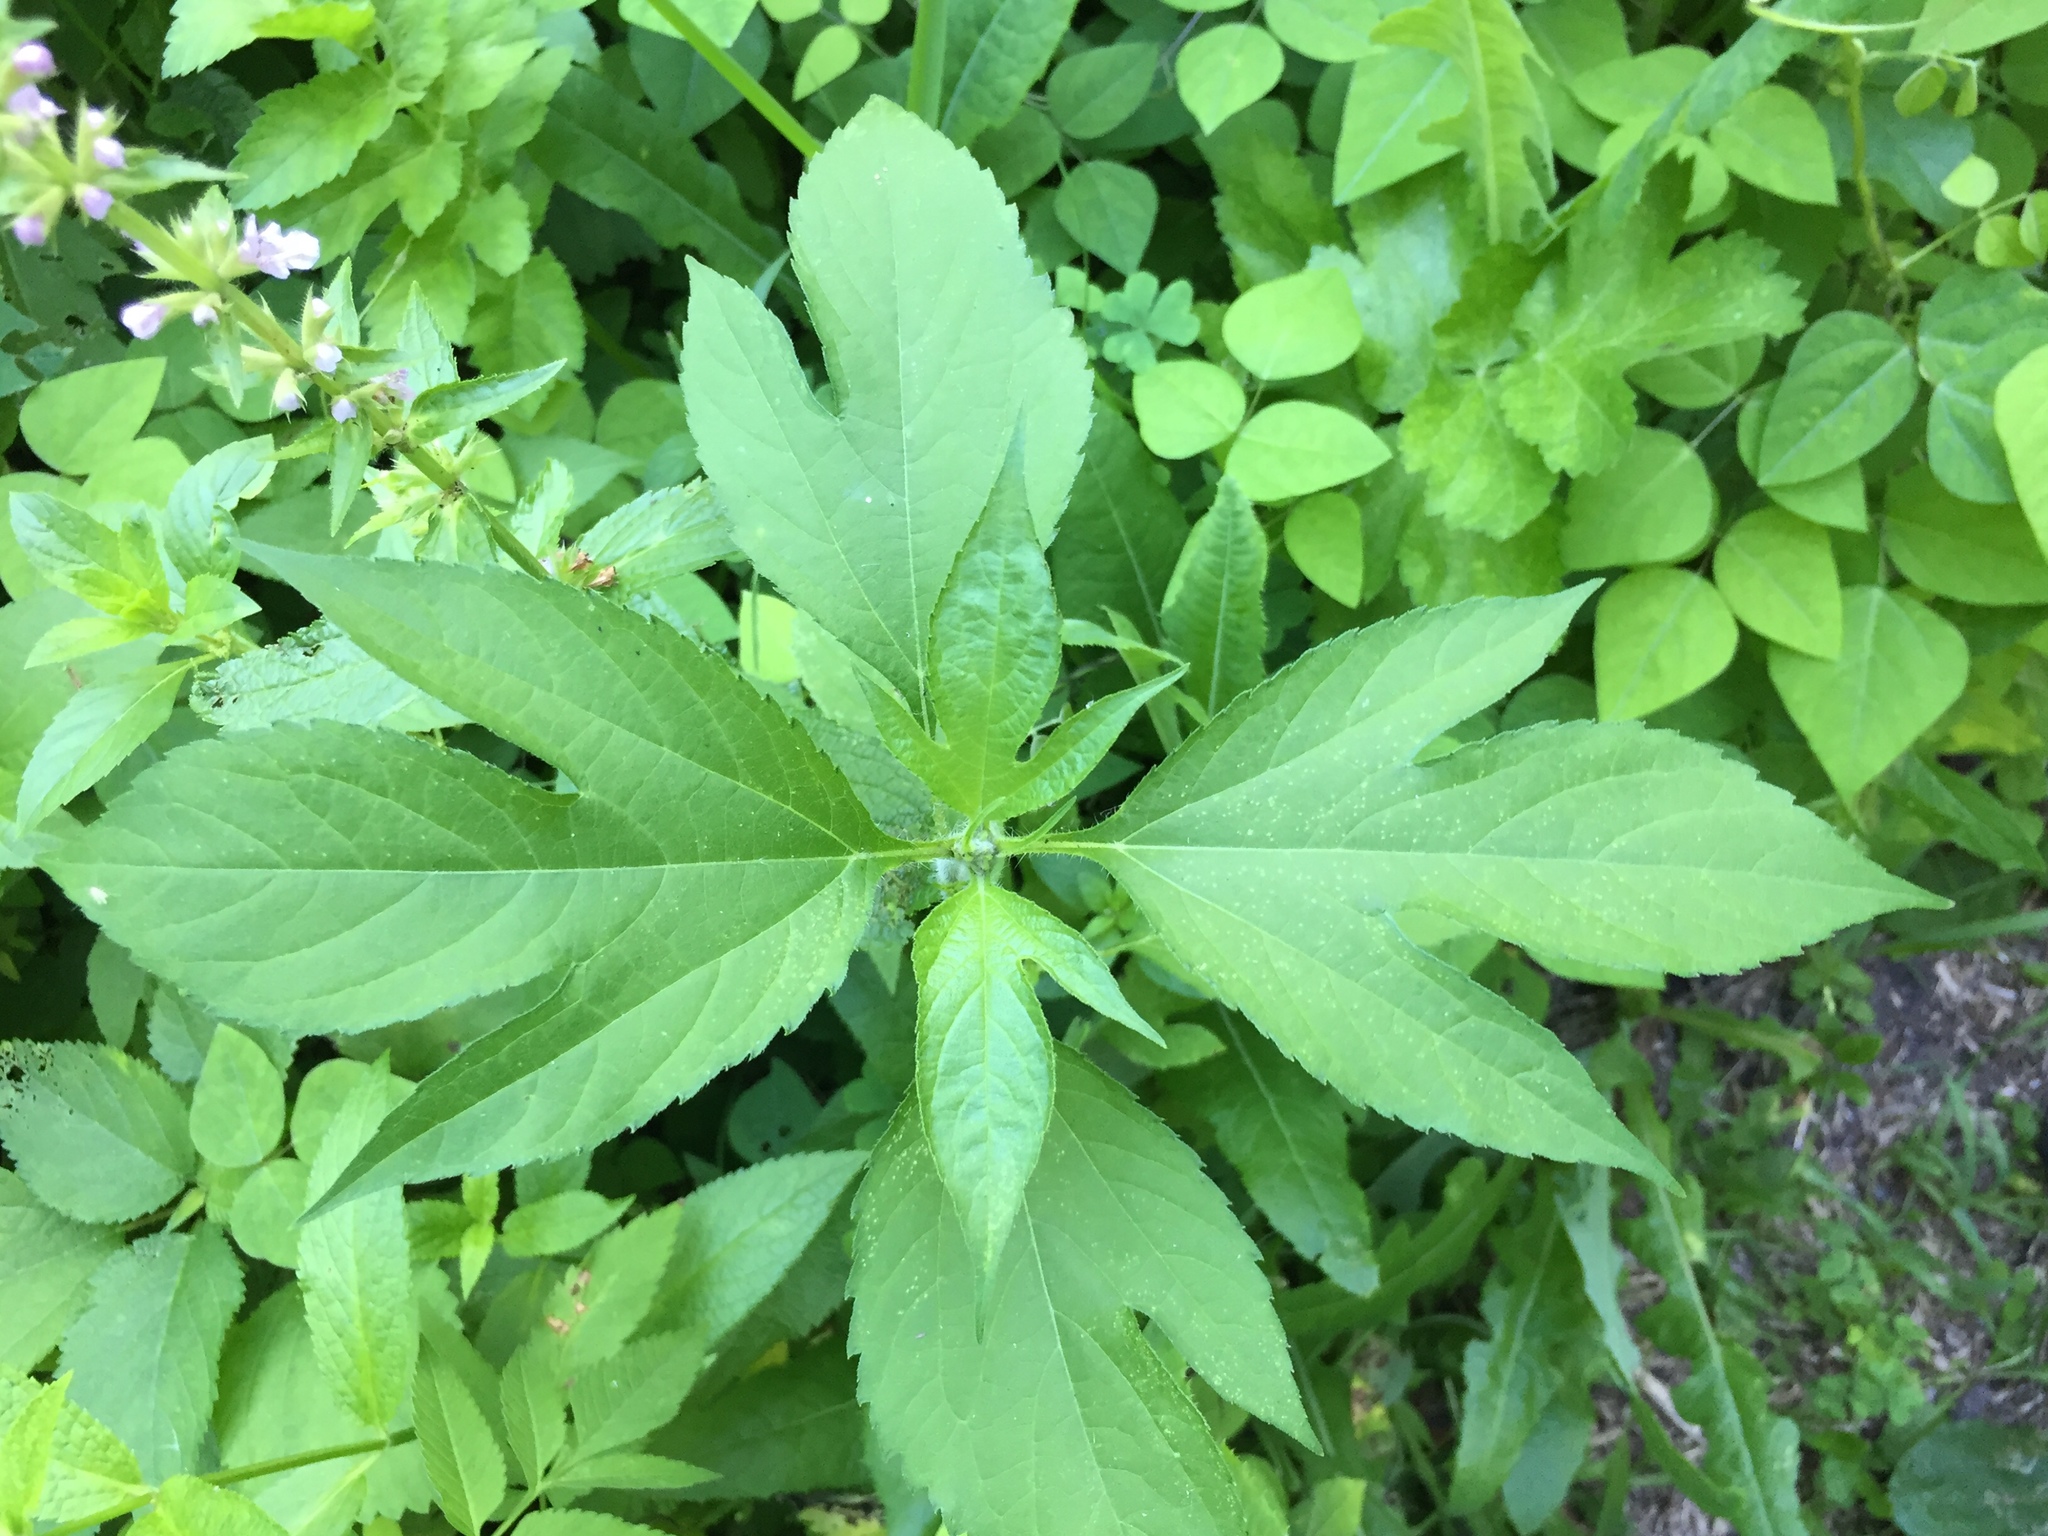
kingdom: Plantae
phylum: Tracheophyta
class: Magnoliopsida
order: Asterales
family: Asteraceae
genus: Ambrosia
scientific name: Ambrosia trifida
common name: Giant ragweed
